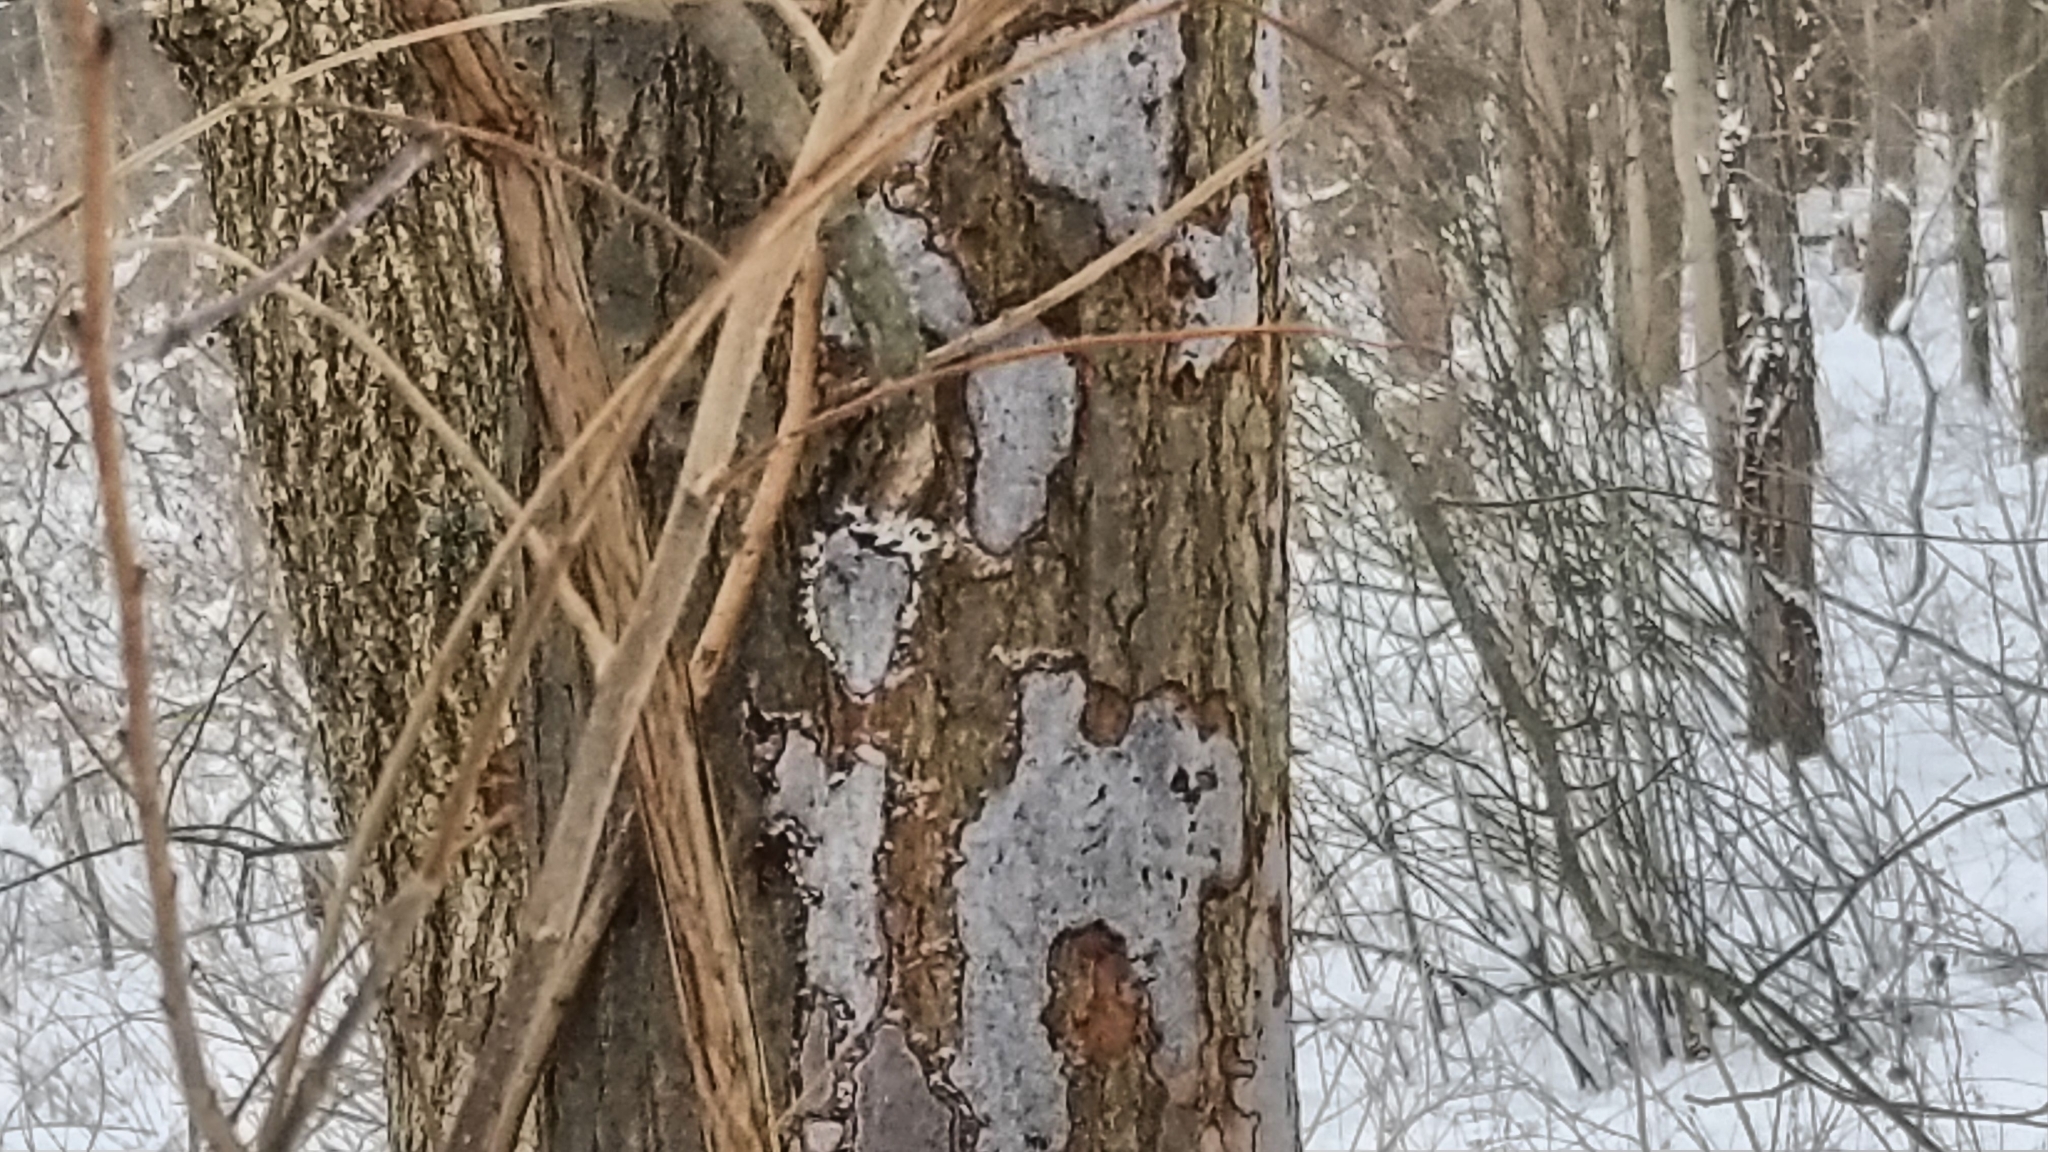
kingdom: Fungi
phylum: Ascomycota
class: Sordariomycetes
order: Xylariales
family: Graphostromataceae
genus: Biscogniauxia
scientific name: Biscogniauxia atropunctata
